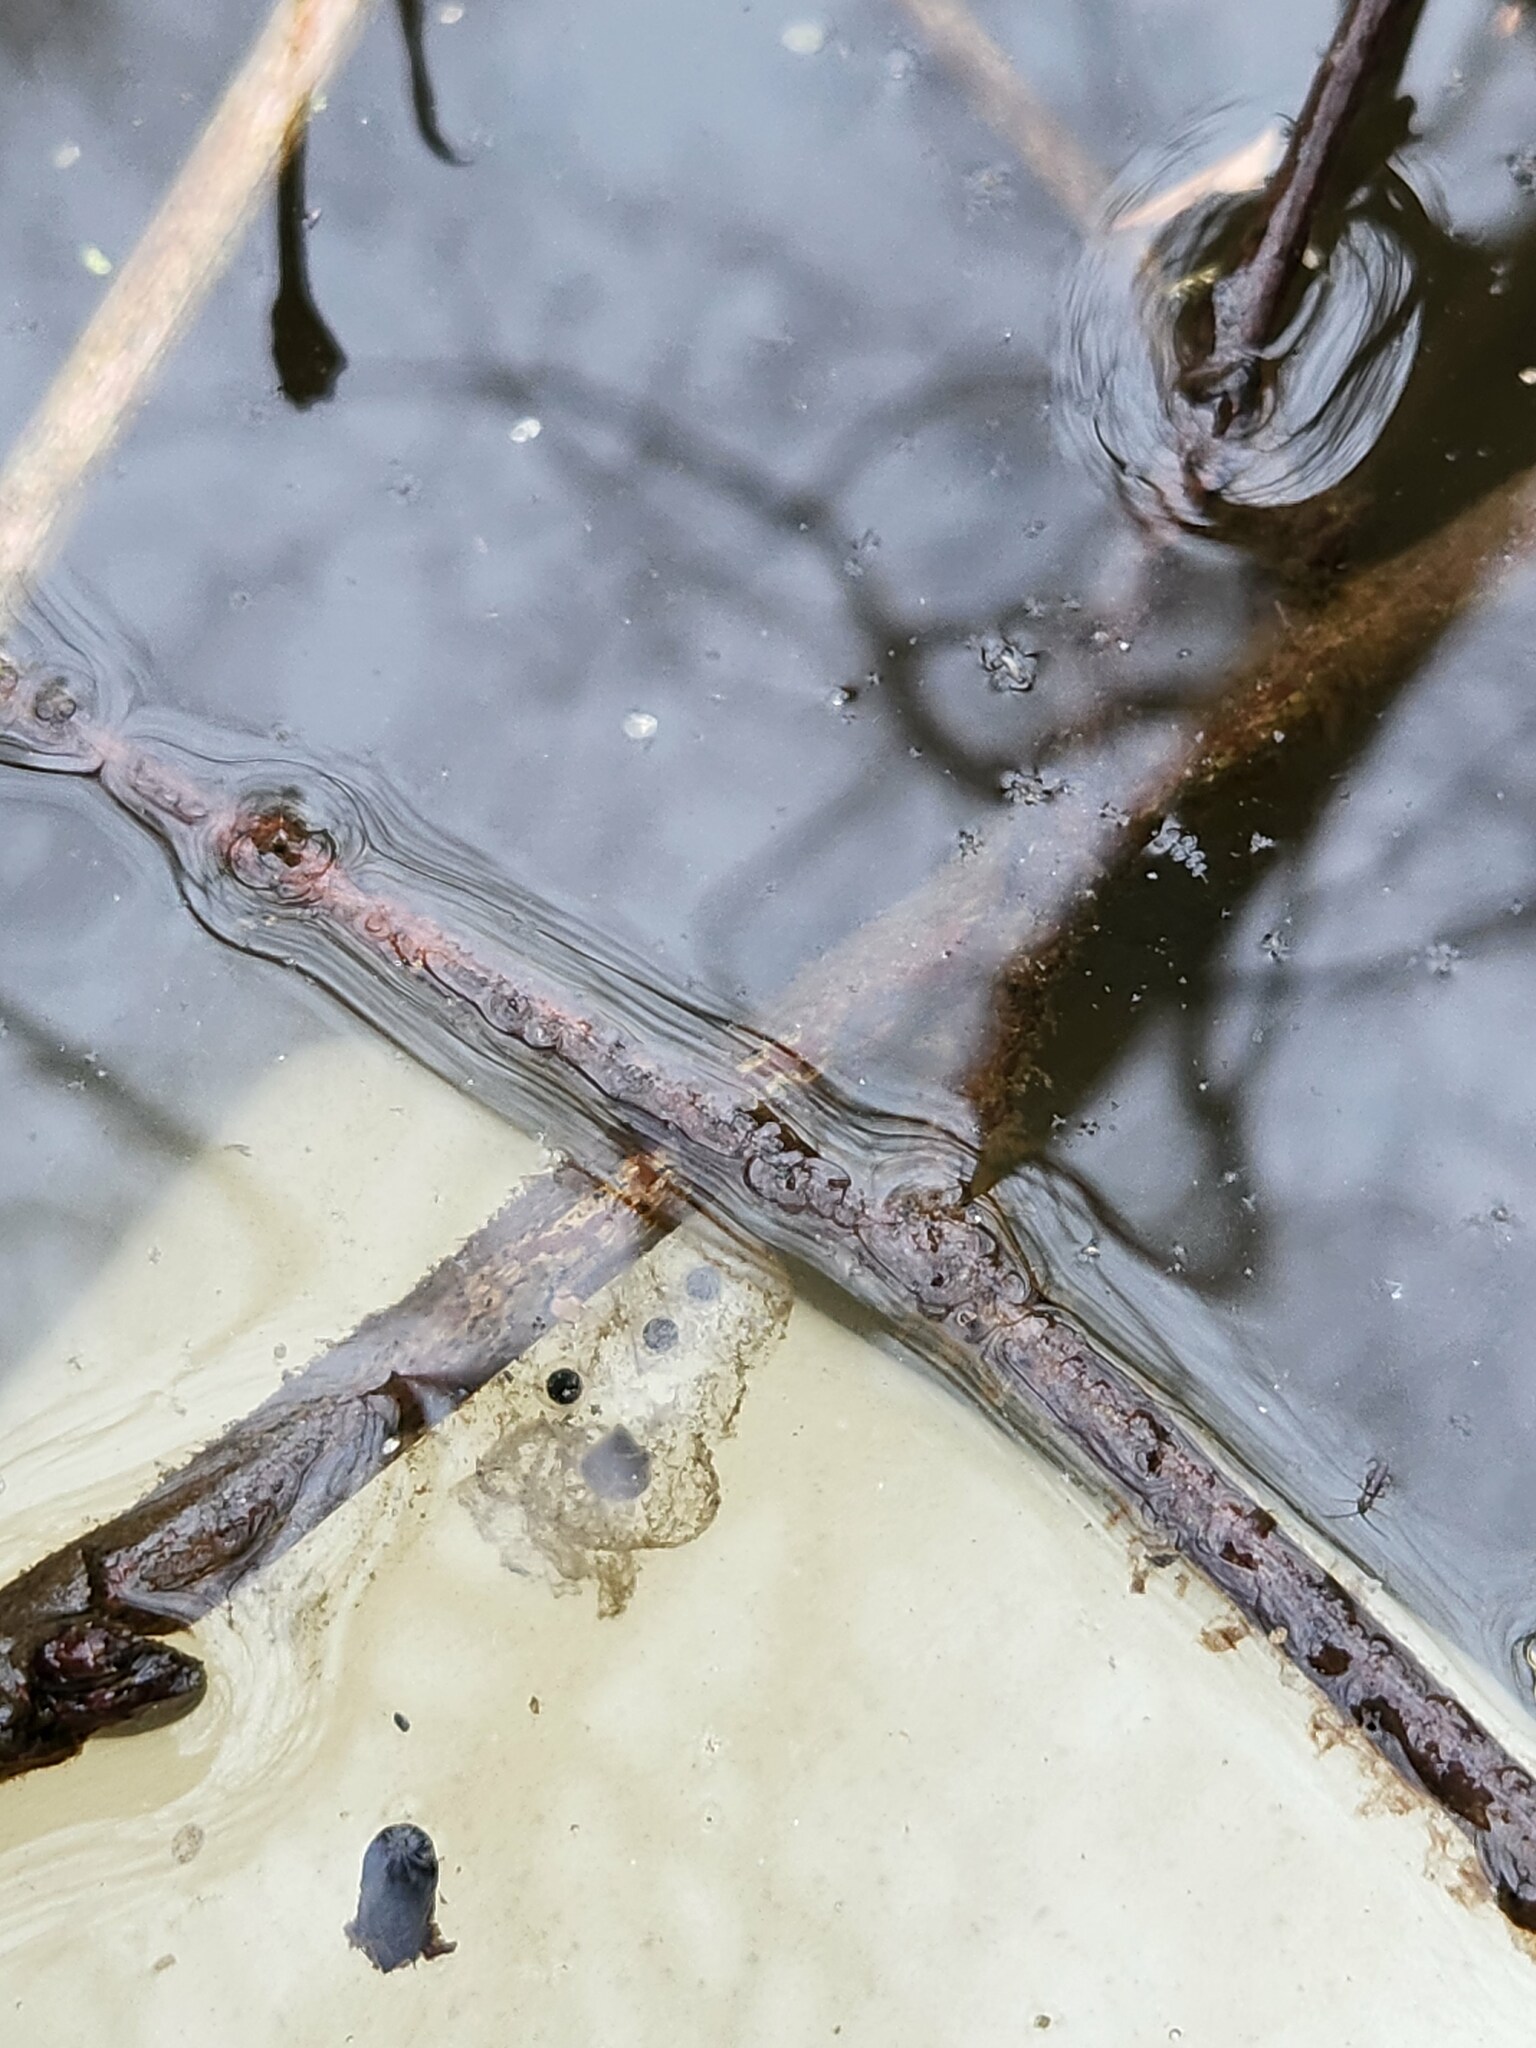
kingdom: Animalia
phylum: Chordata
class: Amphibia
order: Caudata
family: Ambystomatidae
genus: Ambystoma
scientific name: Ambystoma macrodactylum
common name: Long-toed salamander
